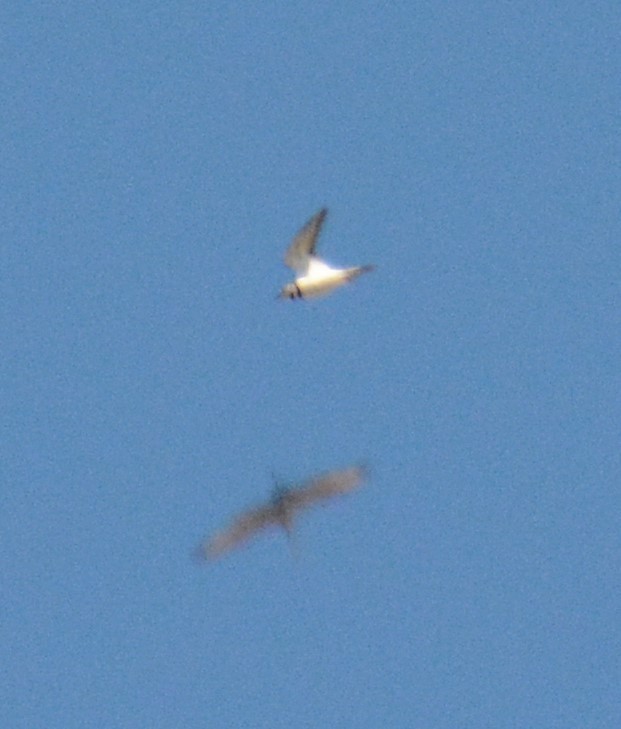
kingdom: Animalia
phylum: Chordata
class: Aves
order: Charadriiformes
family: Charadriidae
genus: Charadrius
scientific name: Charadrius vociferus
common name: Killdeer
